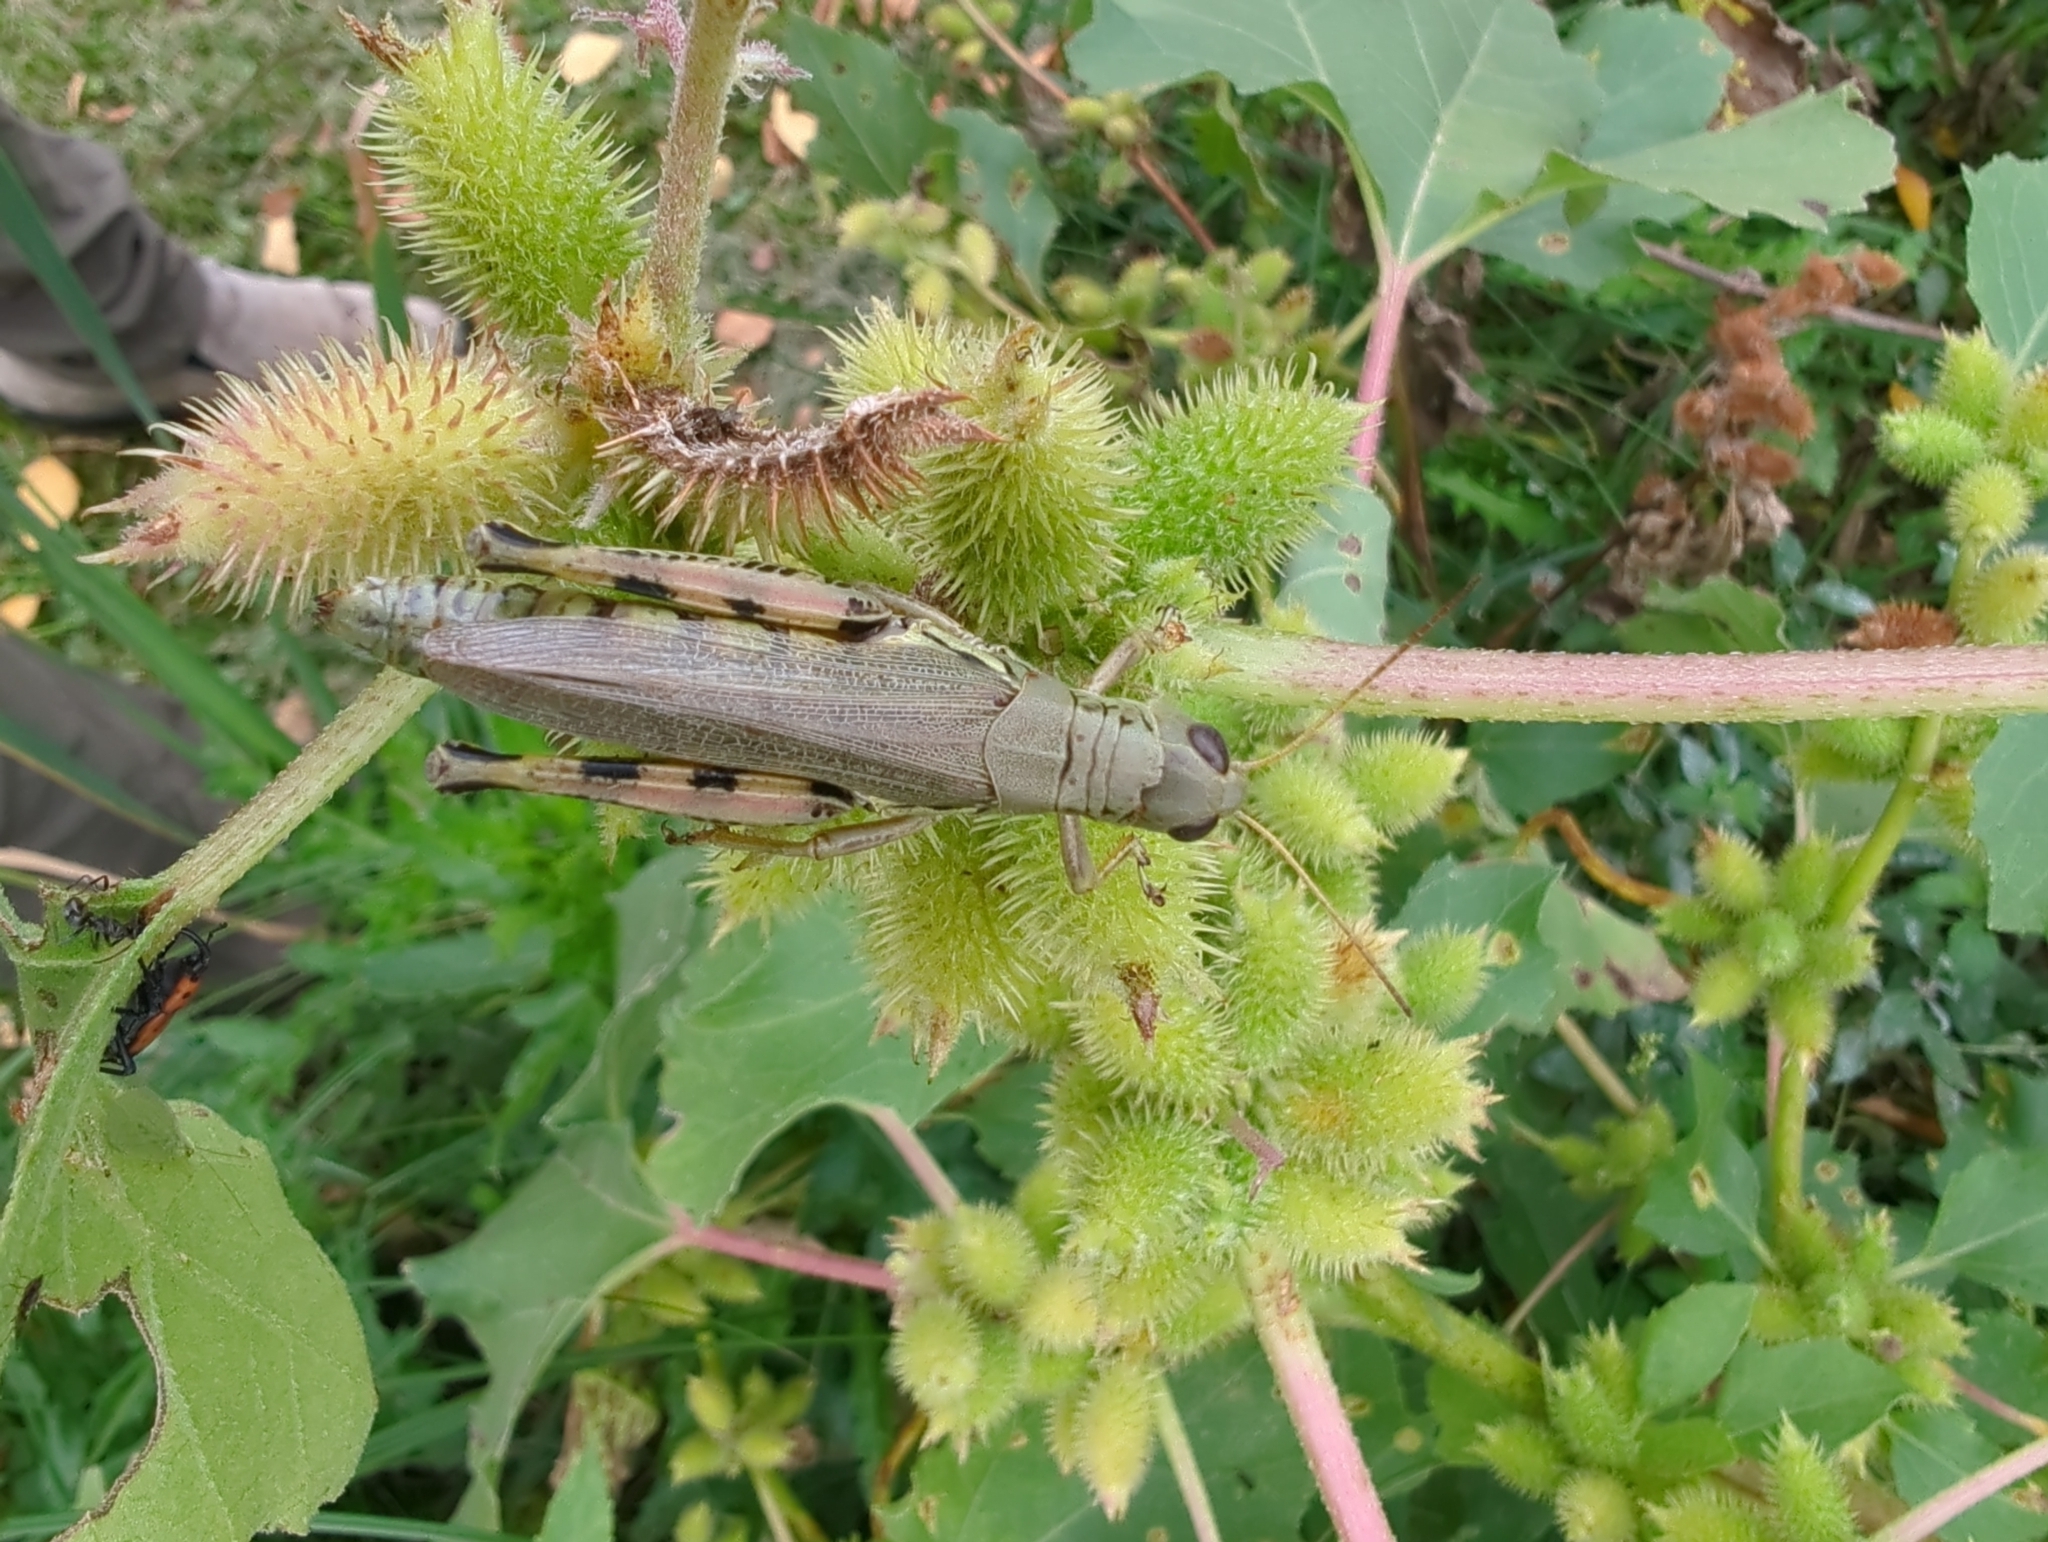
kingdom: Animalia
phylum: Arthropoda
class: Insecta
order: Orthoptera
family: Acrididae
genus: Melanoplus
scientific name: Melanoplus differentialis
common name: Differential grasshopper
